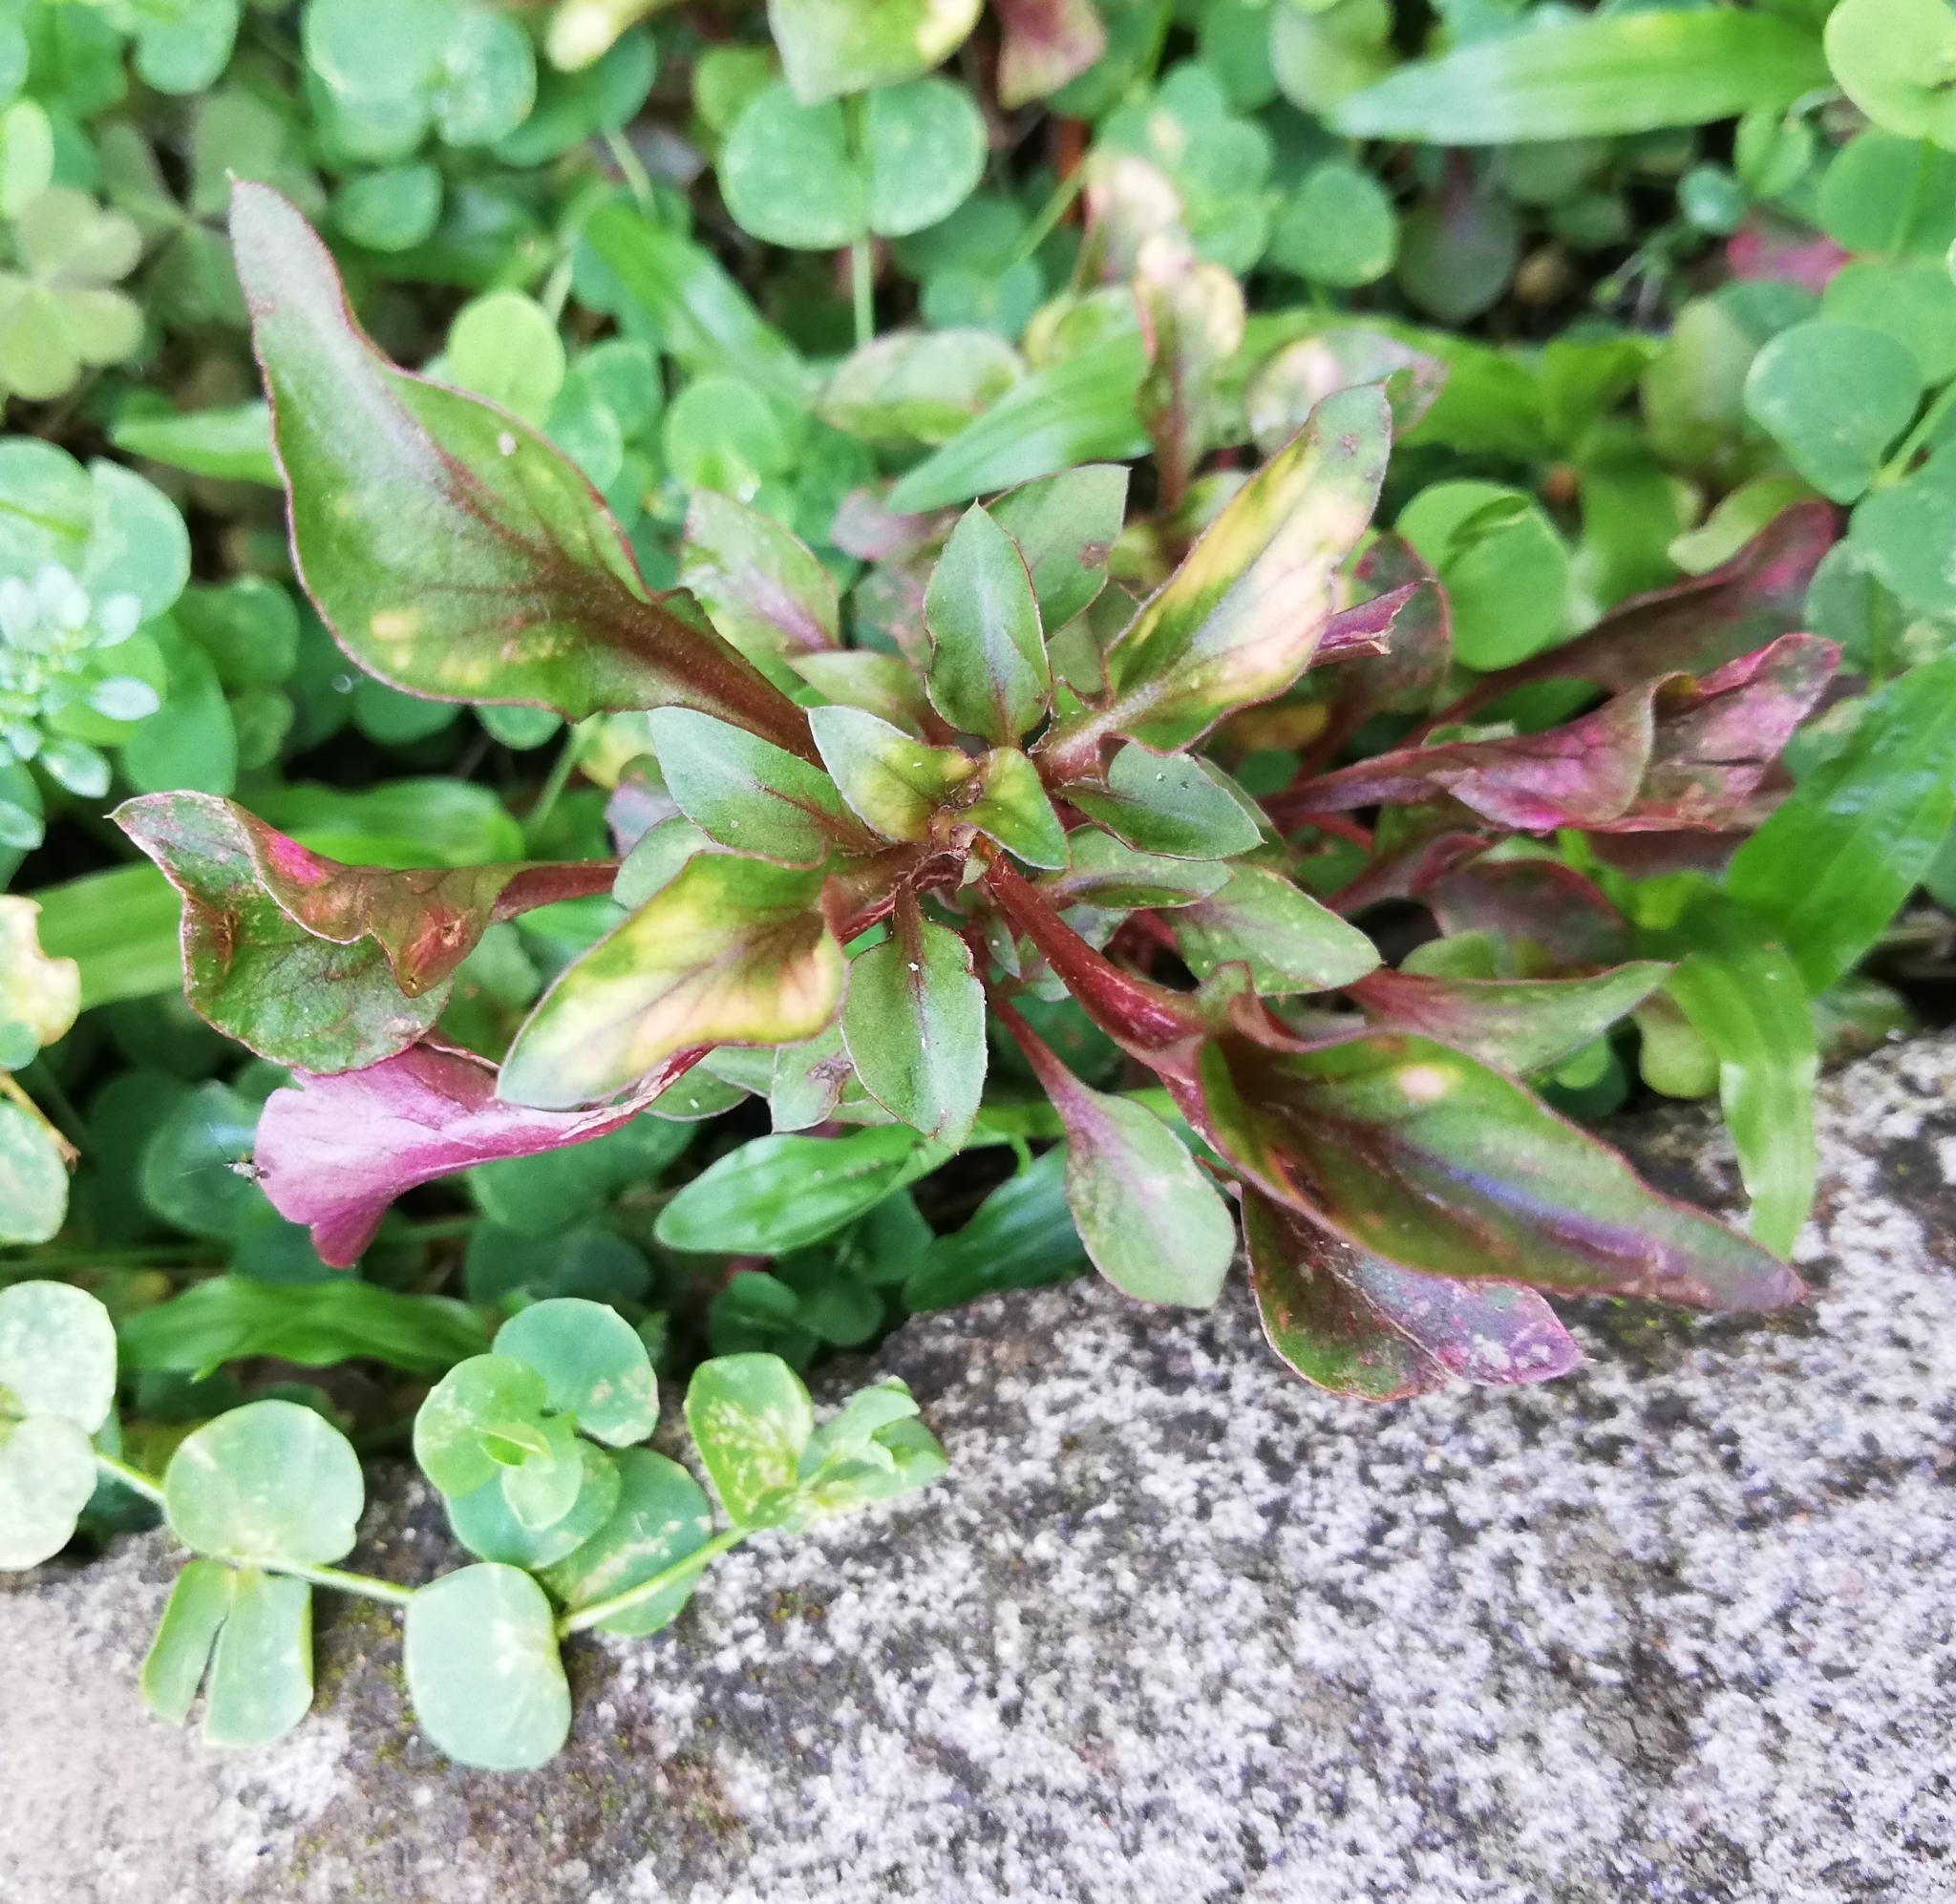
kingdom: Plantae
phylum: Tracheophyta
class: Magnoliopsida
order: Myrtales
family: Onagraceae
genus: Ludwigia
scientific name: Ludwigia palustris
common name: Hampshire-purslane
